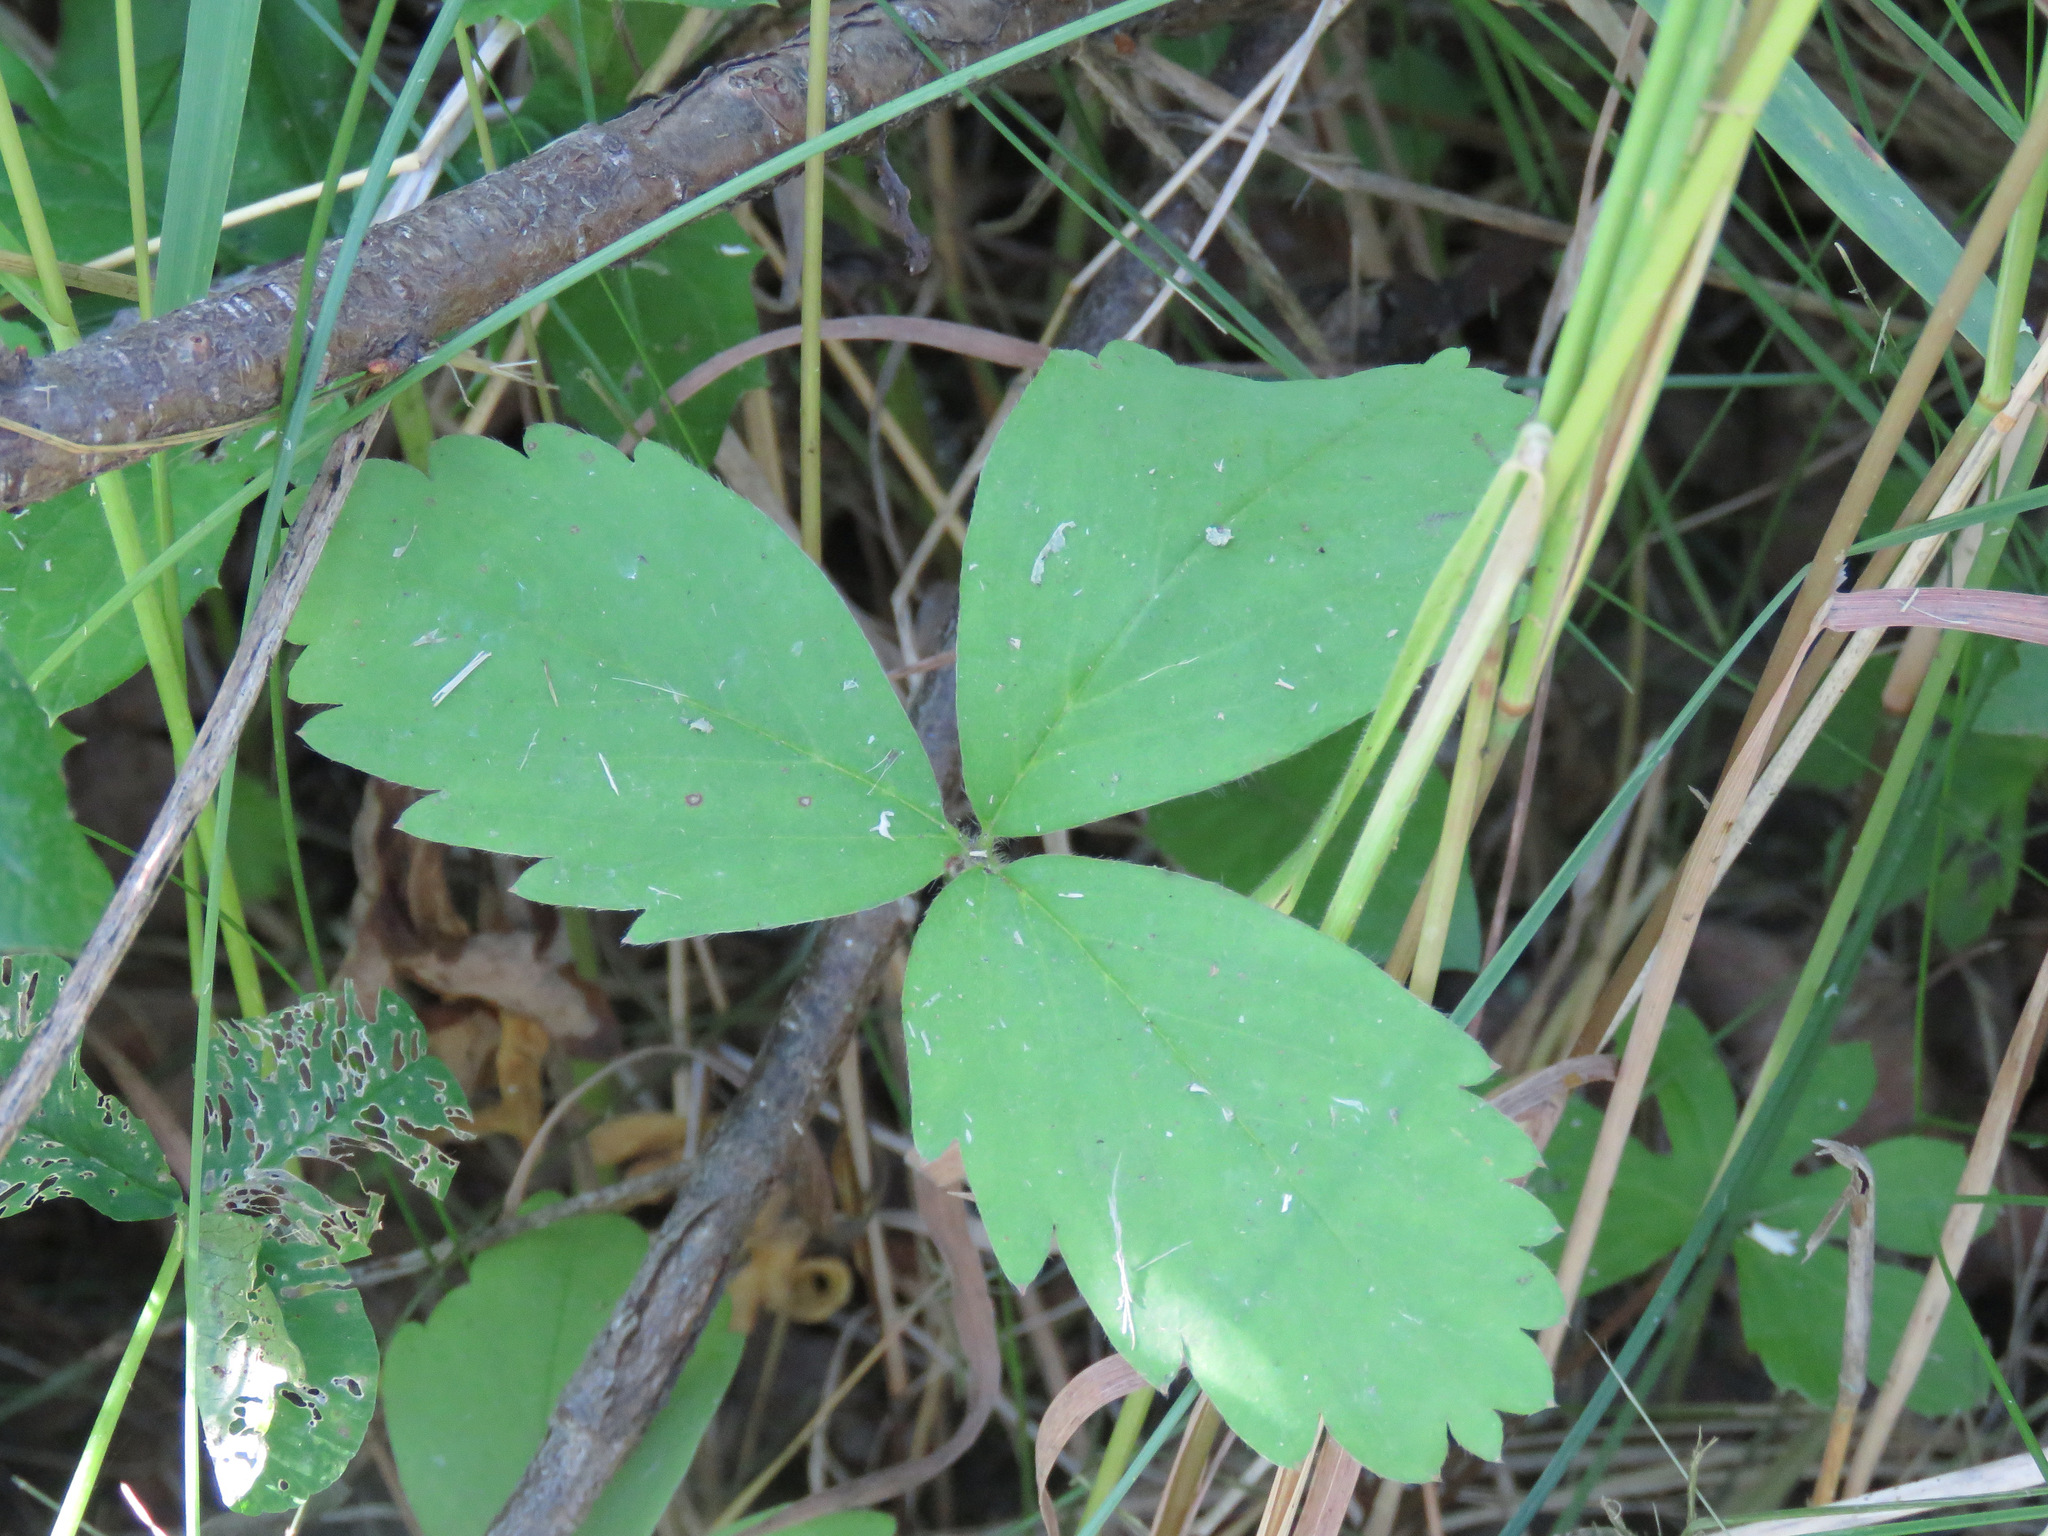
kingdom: Plantae
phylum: Tracheophyta
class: Magnoliopsida
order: Rosales
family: Rosaceae
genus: Fragaria
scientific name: Fragaria virginiana
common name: Thickleaved wild strawberry
